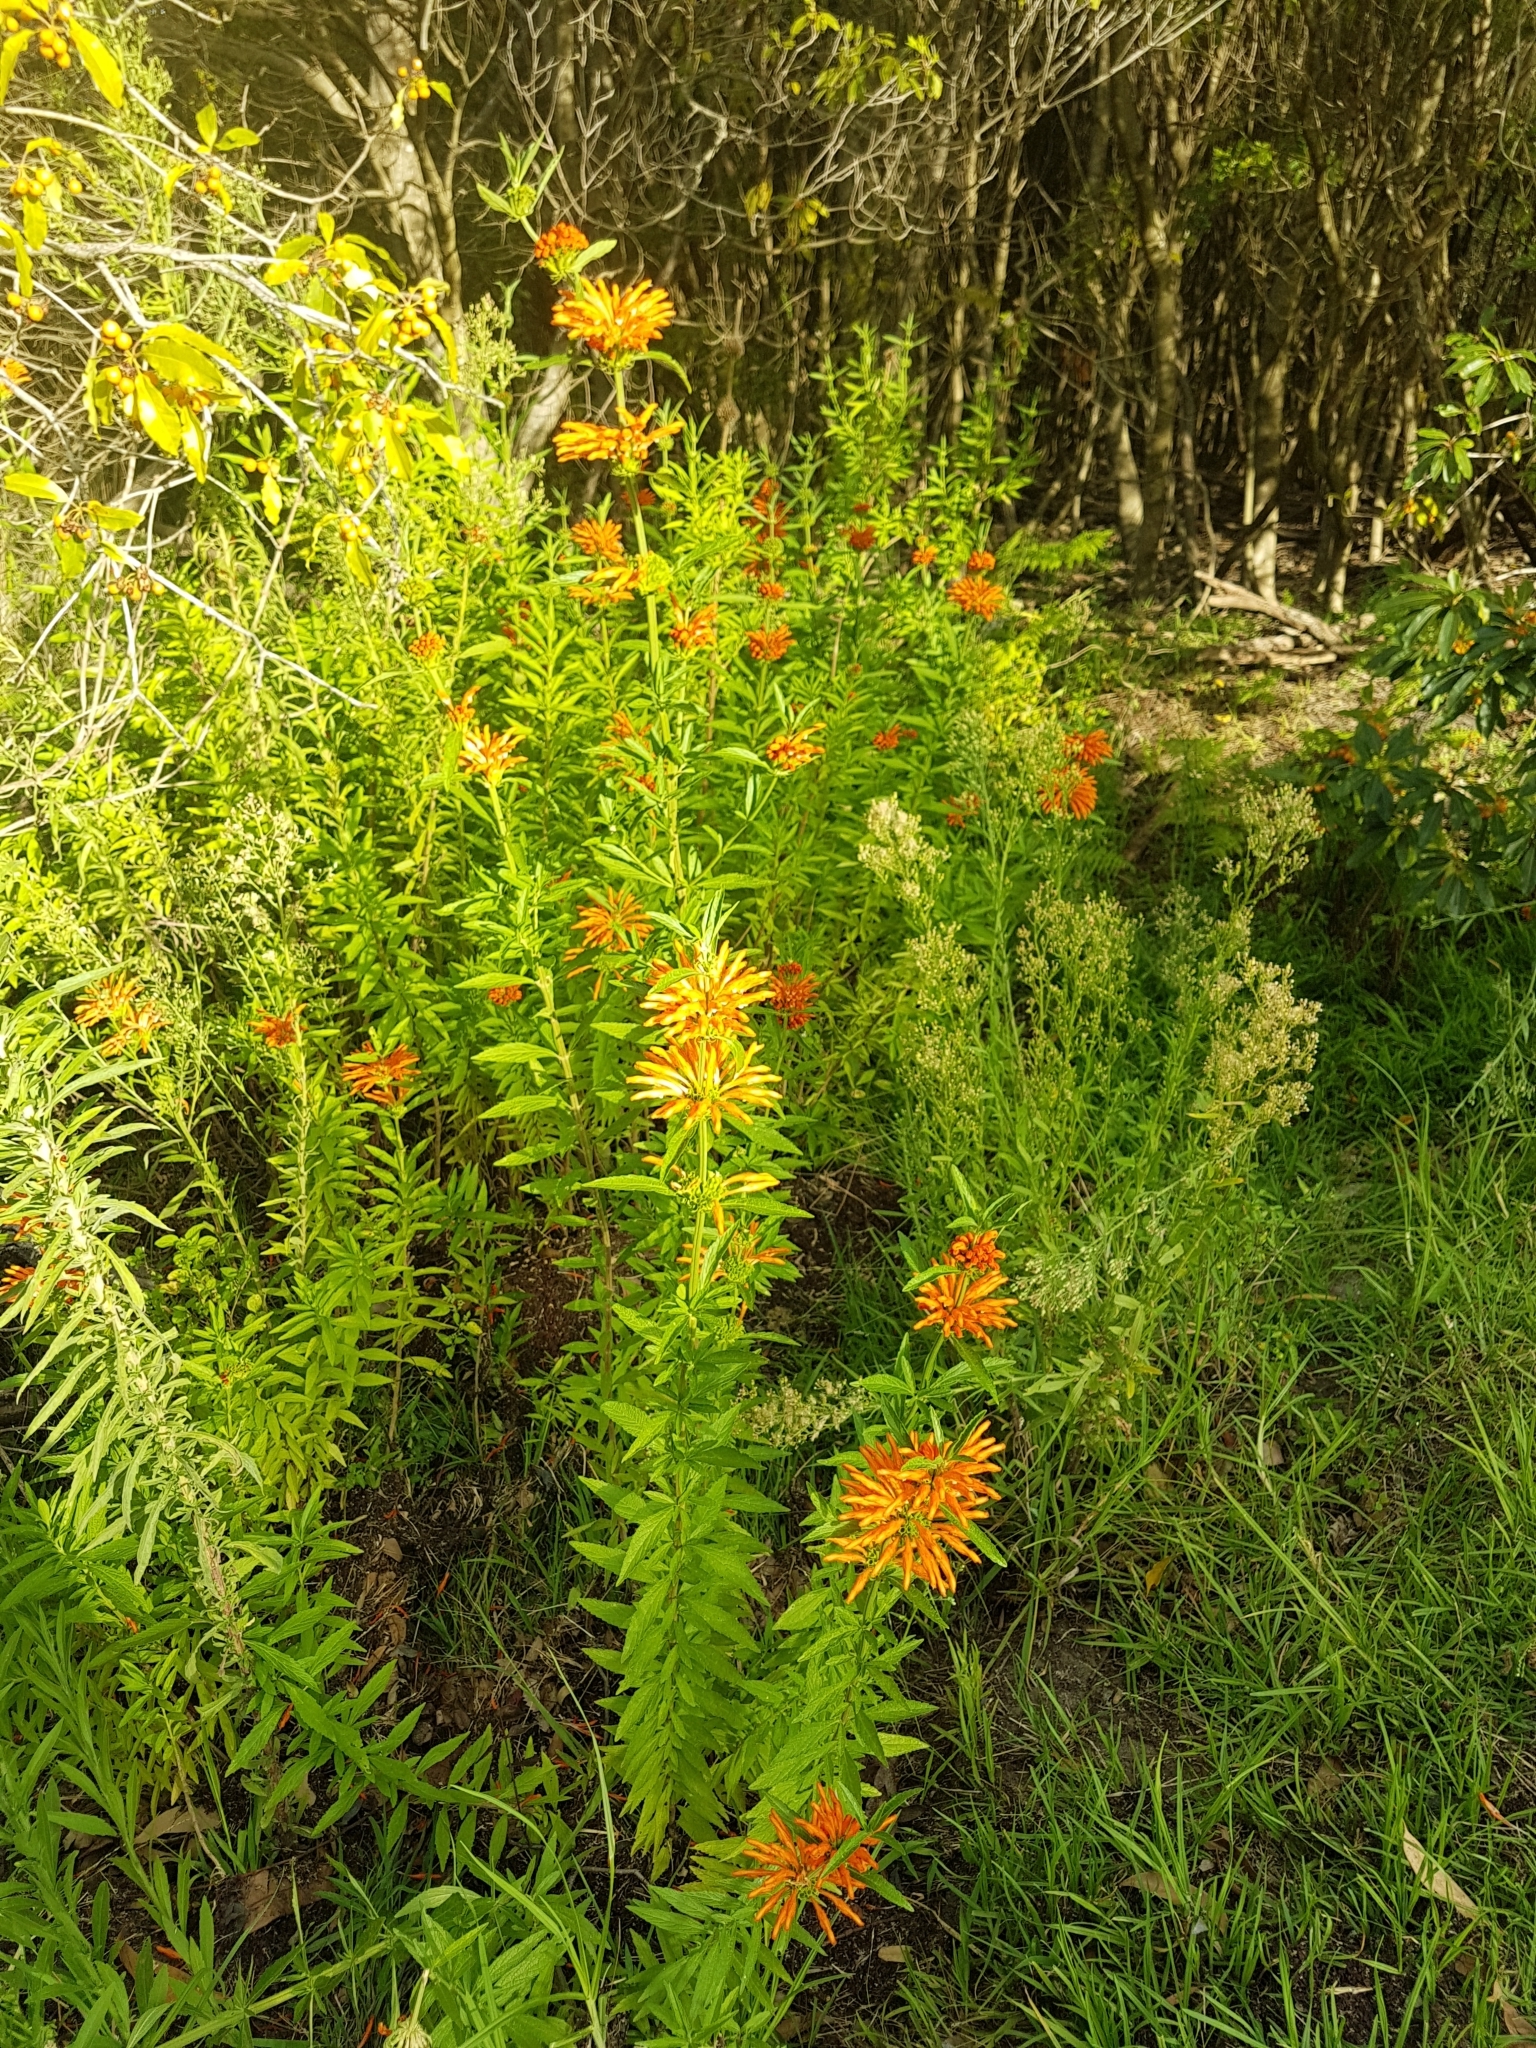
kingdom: Plantae
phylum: Tracheophyta
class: Magnoliopsida
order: Lamiales
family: Lamiaceae
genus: Leonotis
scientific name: Leonotis leonurus
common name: Lion's ear
